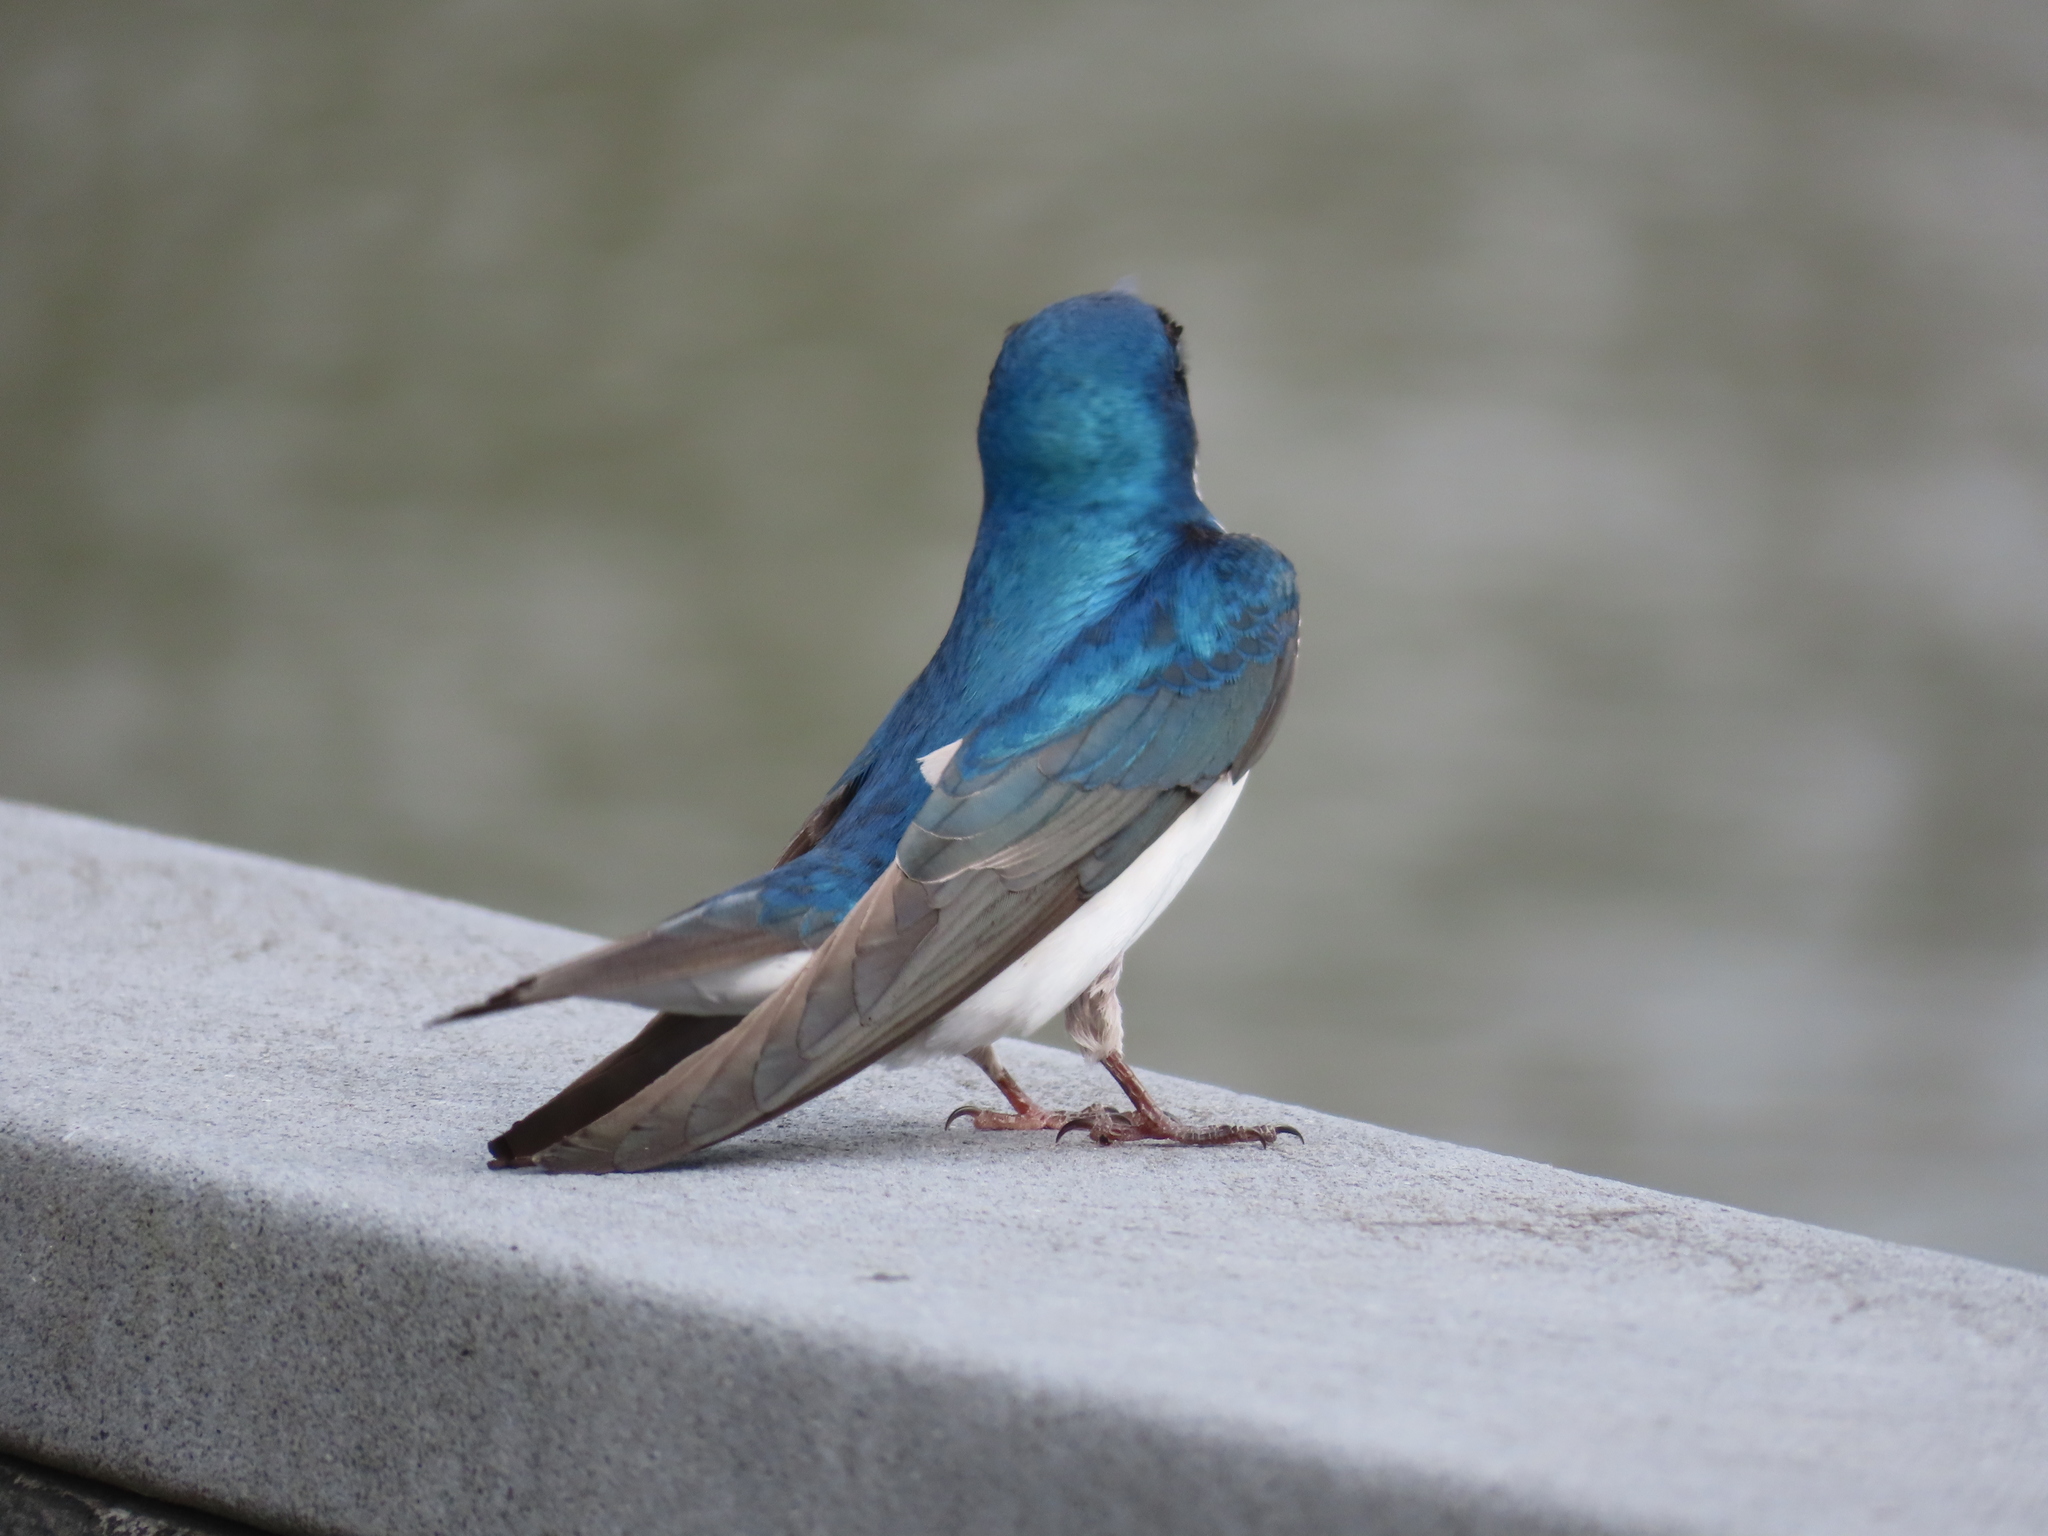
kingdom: Animalia
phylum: Chordata
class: Aves
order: Passeriformes
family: Hirundinidae
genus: Tachycineta
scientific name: Tachycineta bicolor
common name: Tree swallow
